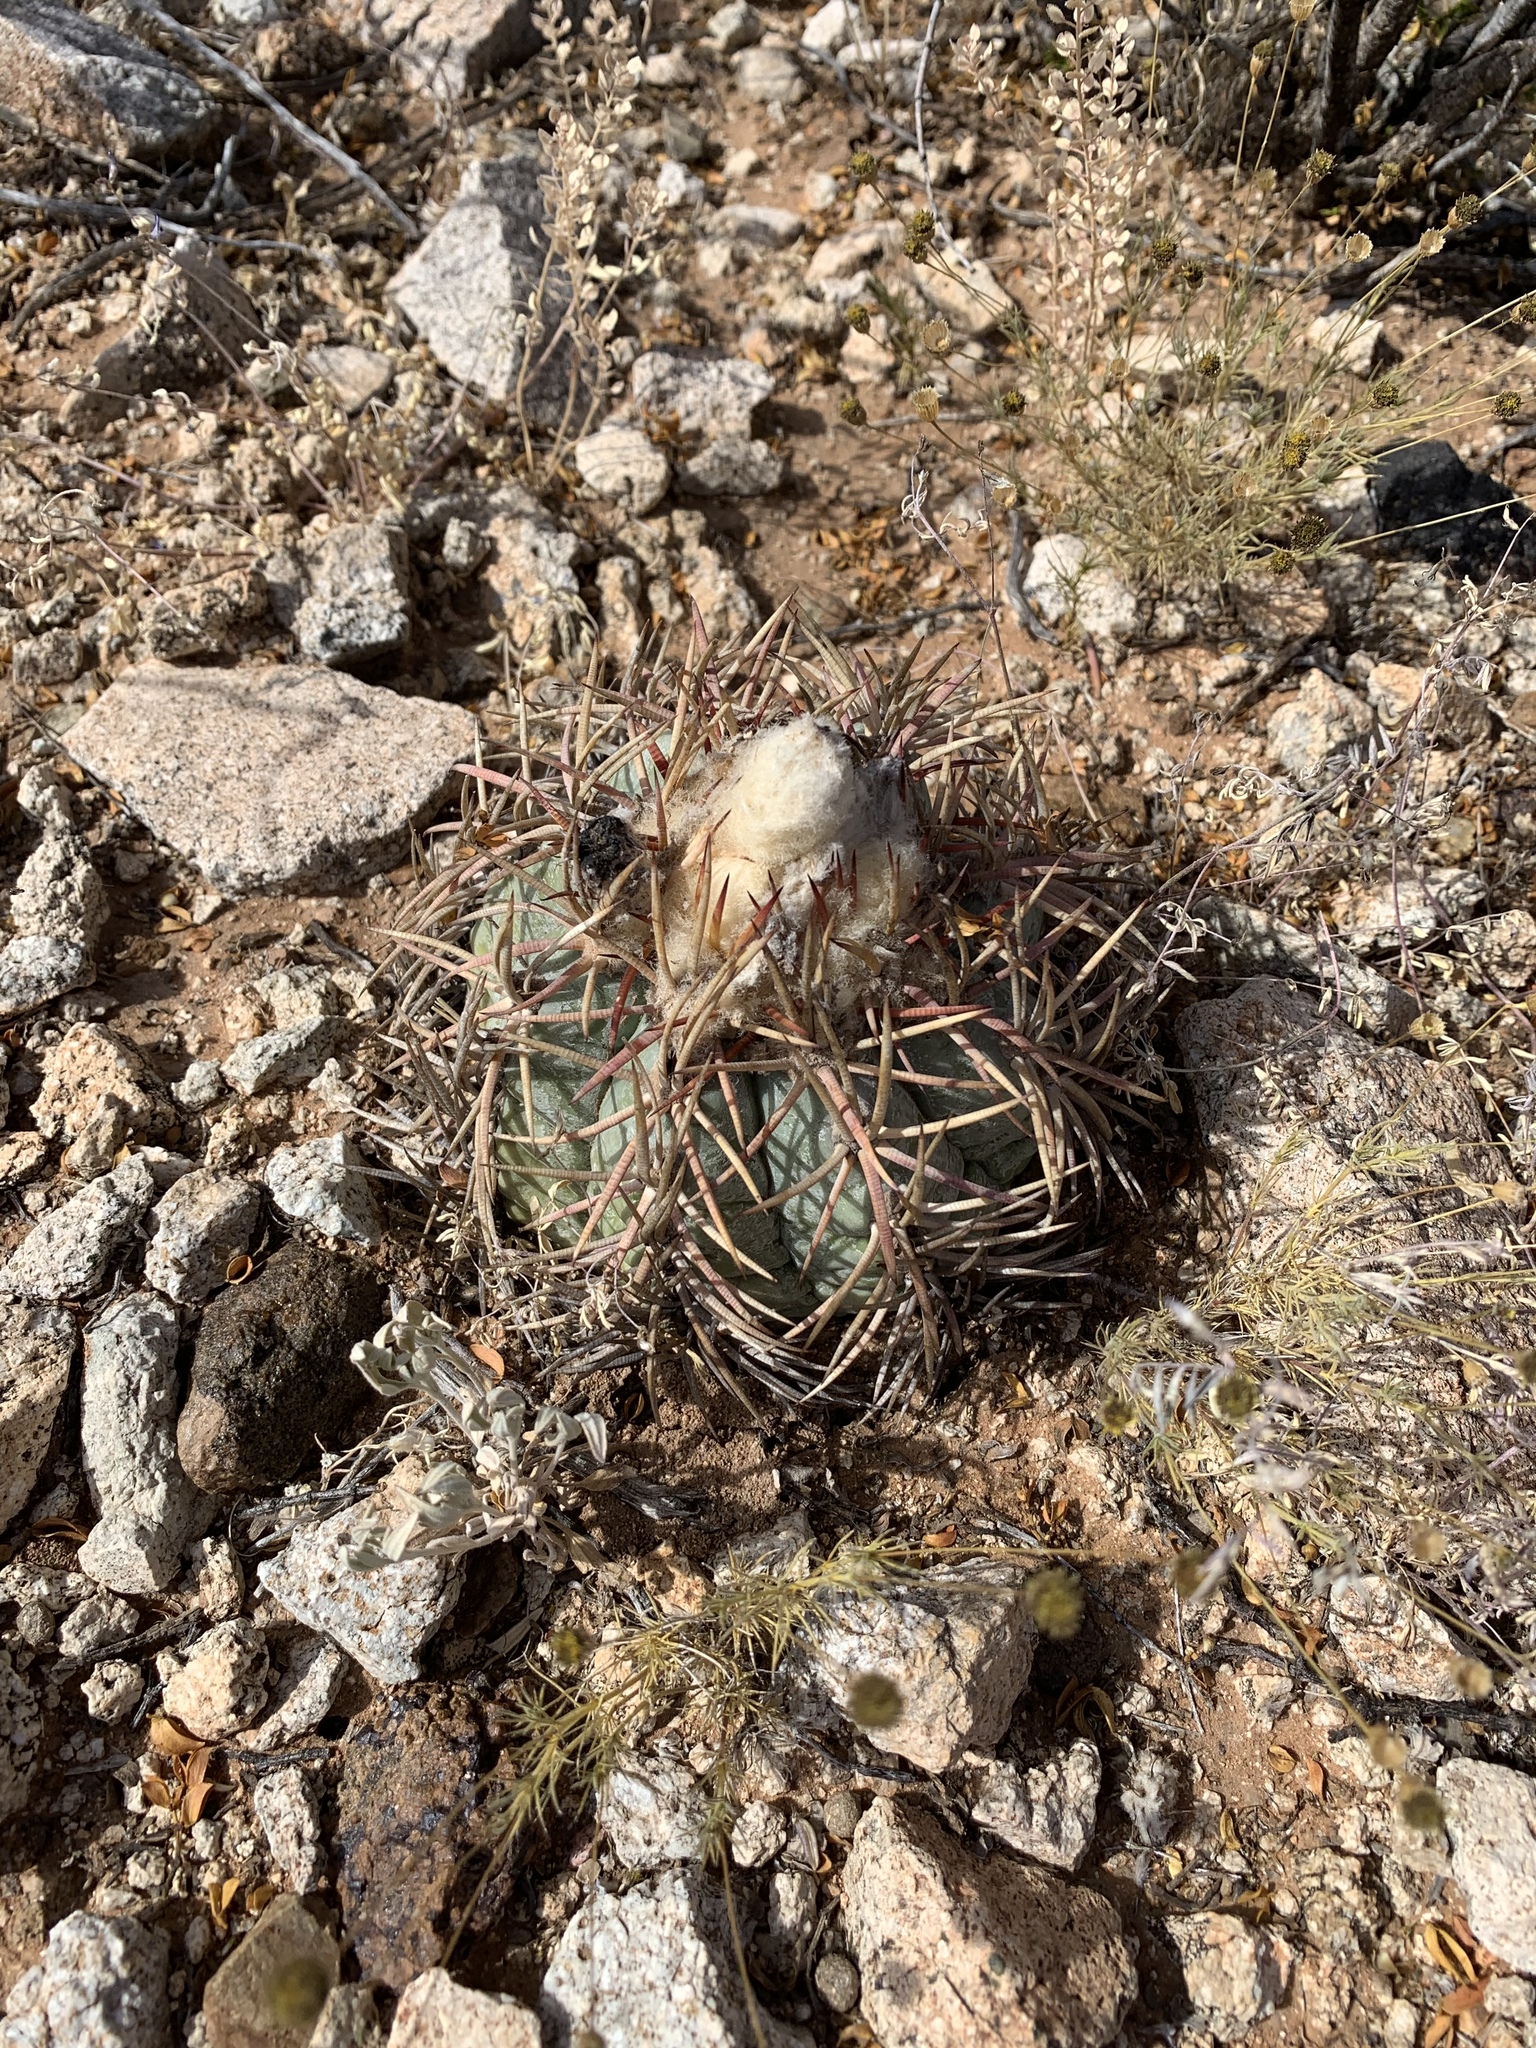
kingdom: Plantae
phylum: Tracheophyta
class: Magnoliopsida
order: Caryophyllales
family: Cactaceae
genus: Echinocactus
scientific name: Echinocactus horizonthalonius
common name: Devilshead
